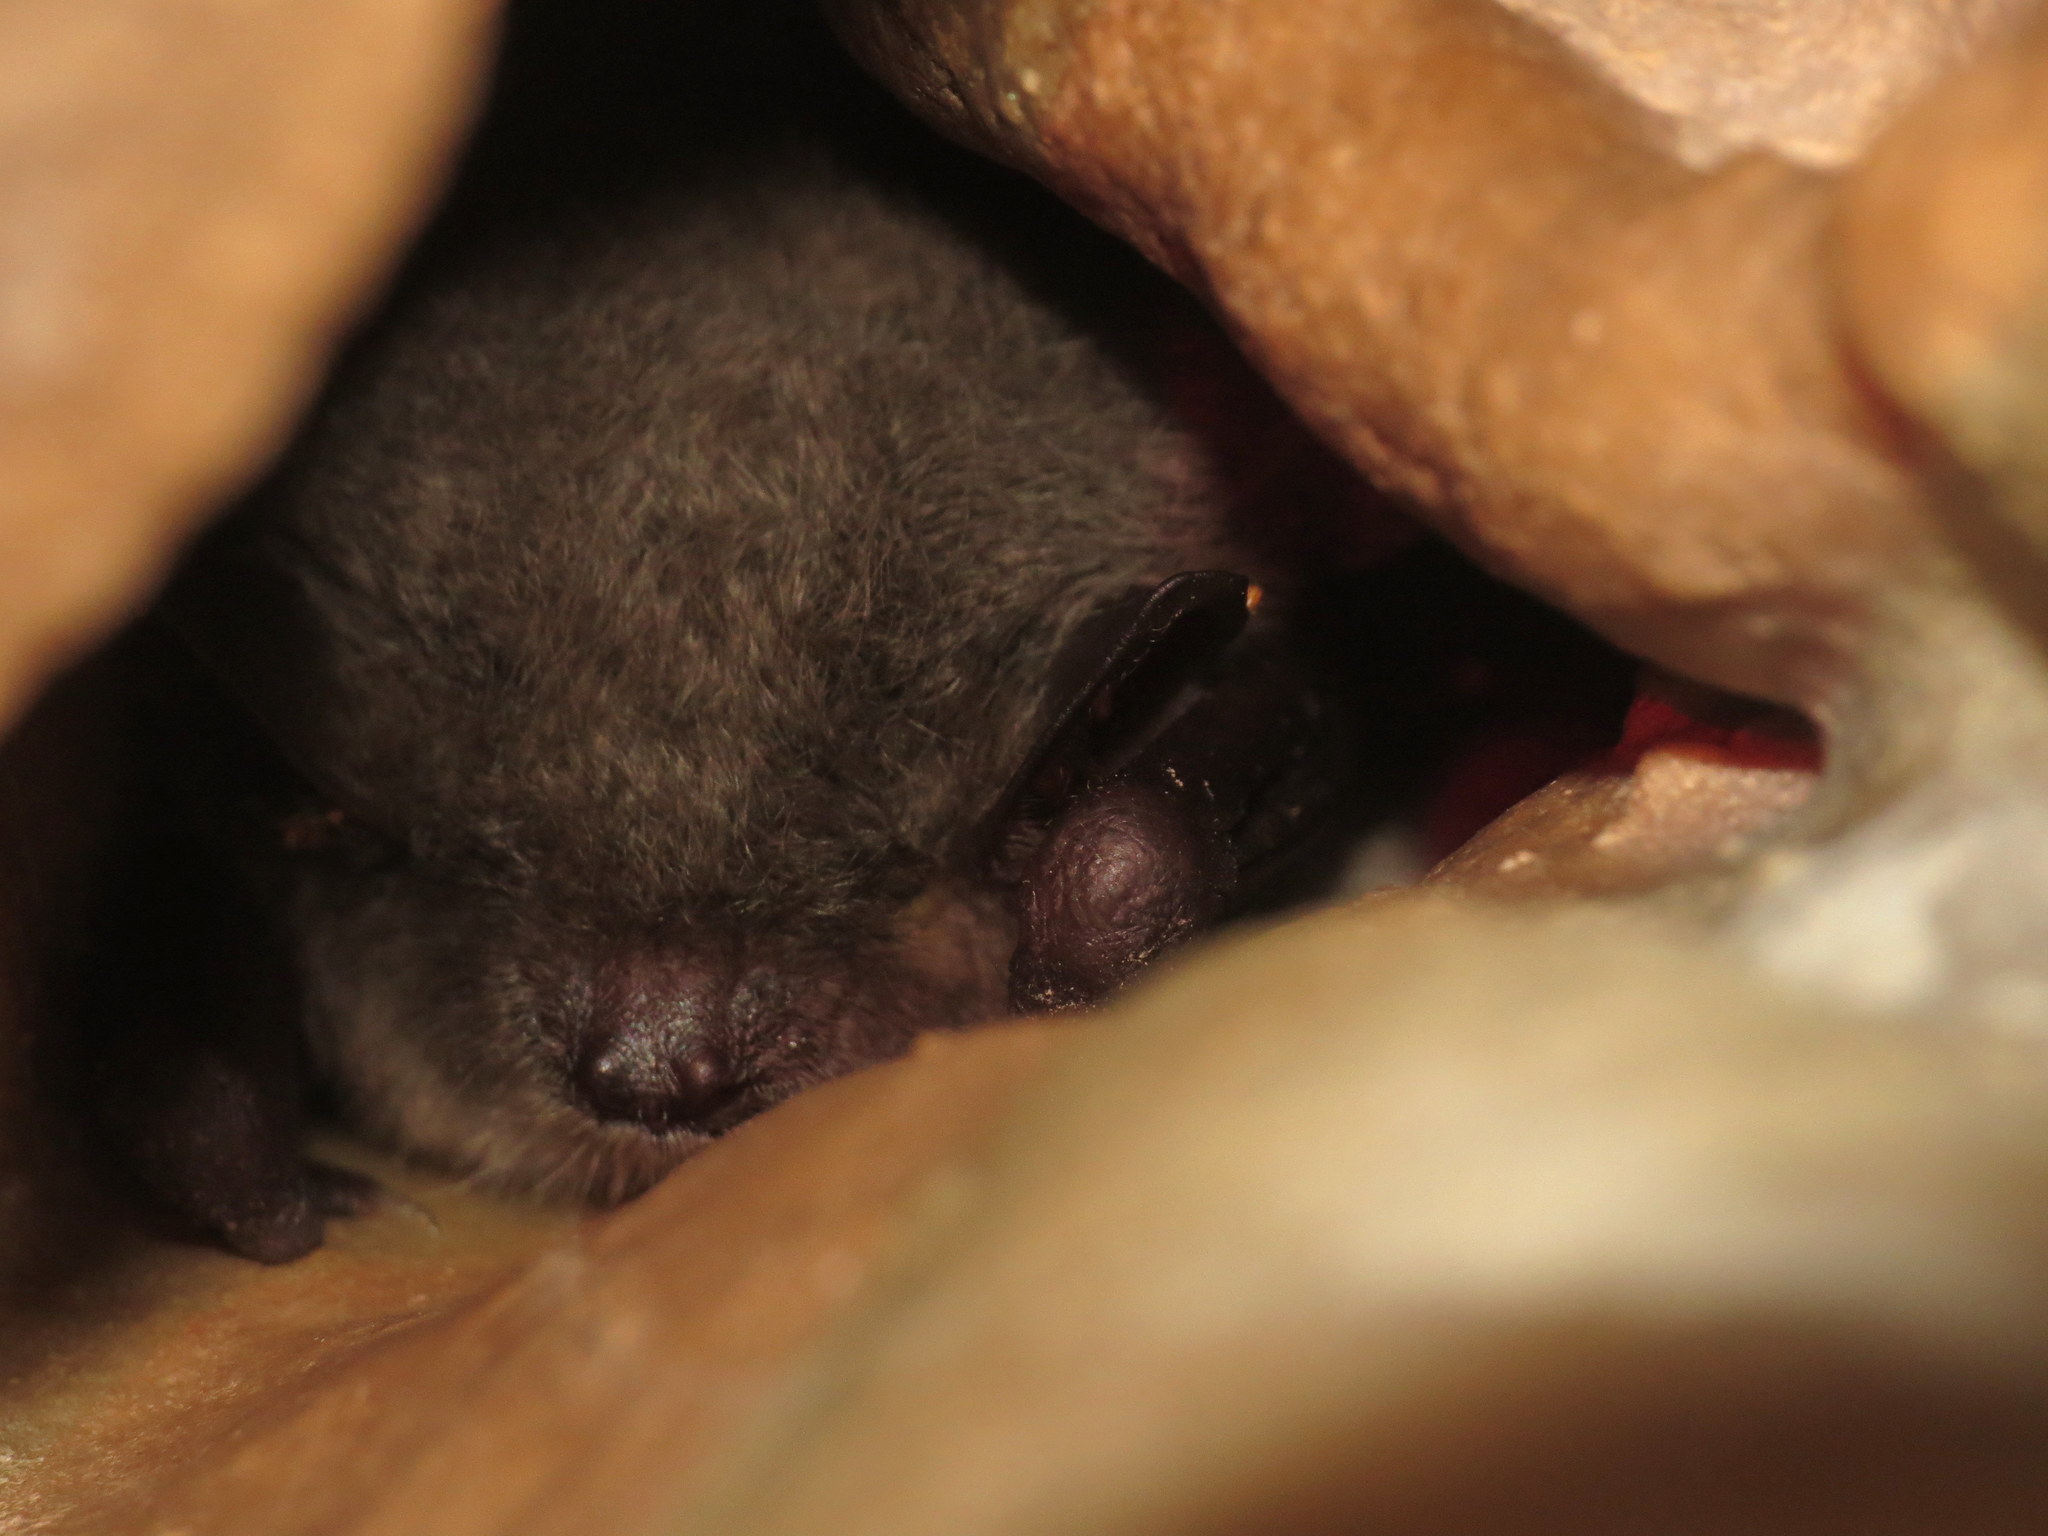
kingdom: Animalia
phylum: Chordata
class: Mammalia
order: Chiroptera
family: Vespertilionidae
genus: Myotis
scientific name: Myotis daubentonii
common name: Daubenton's myotis
